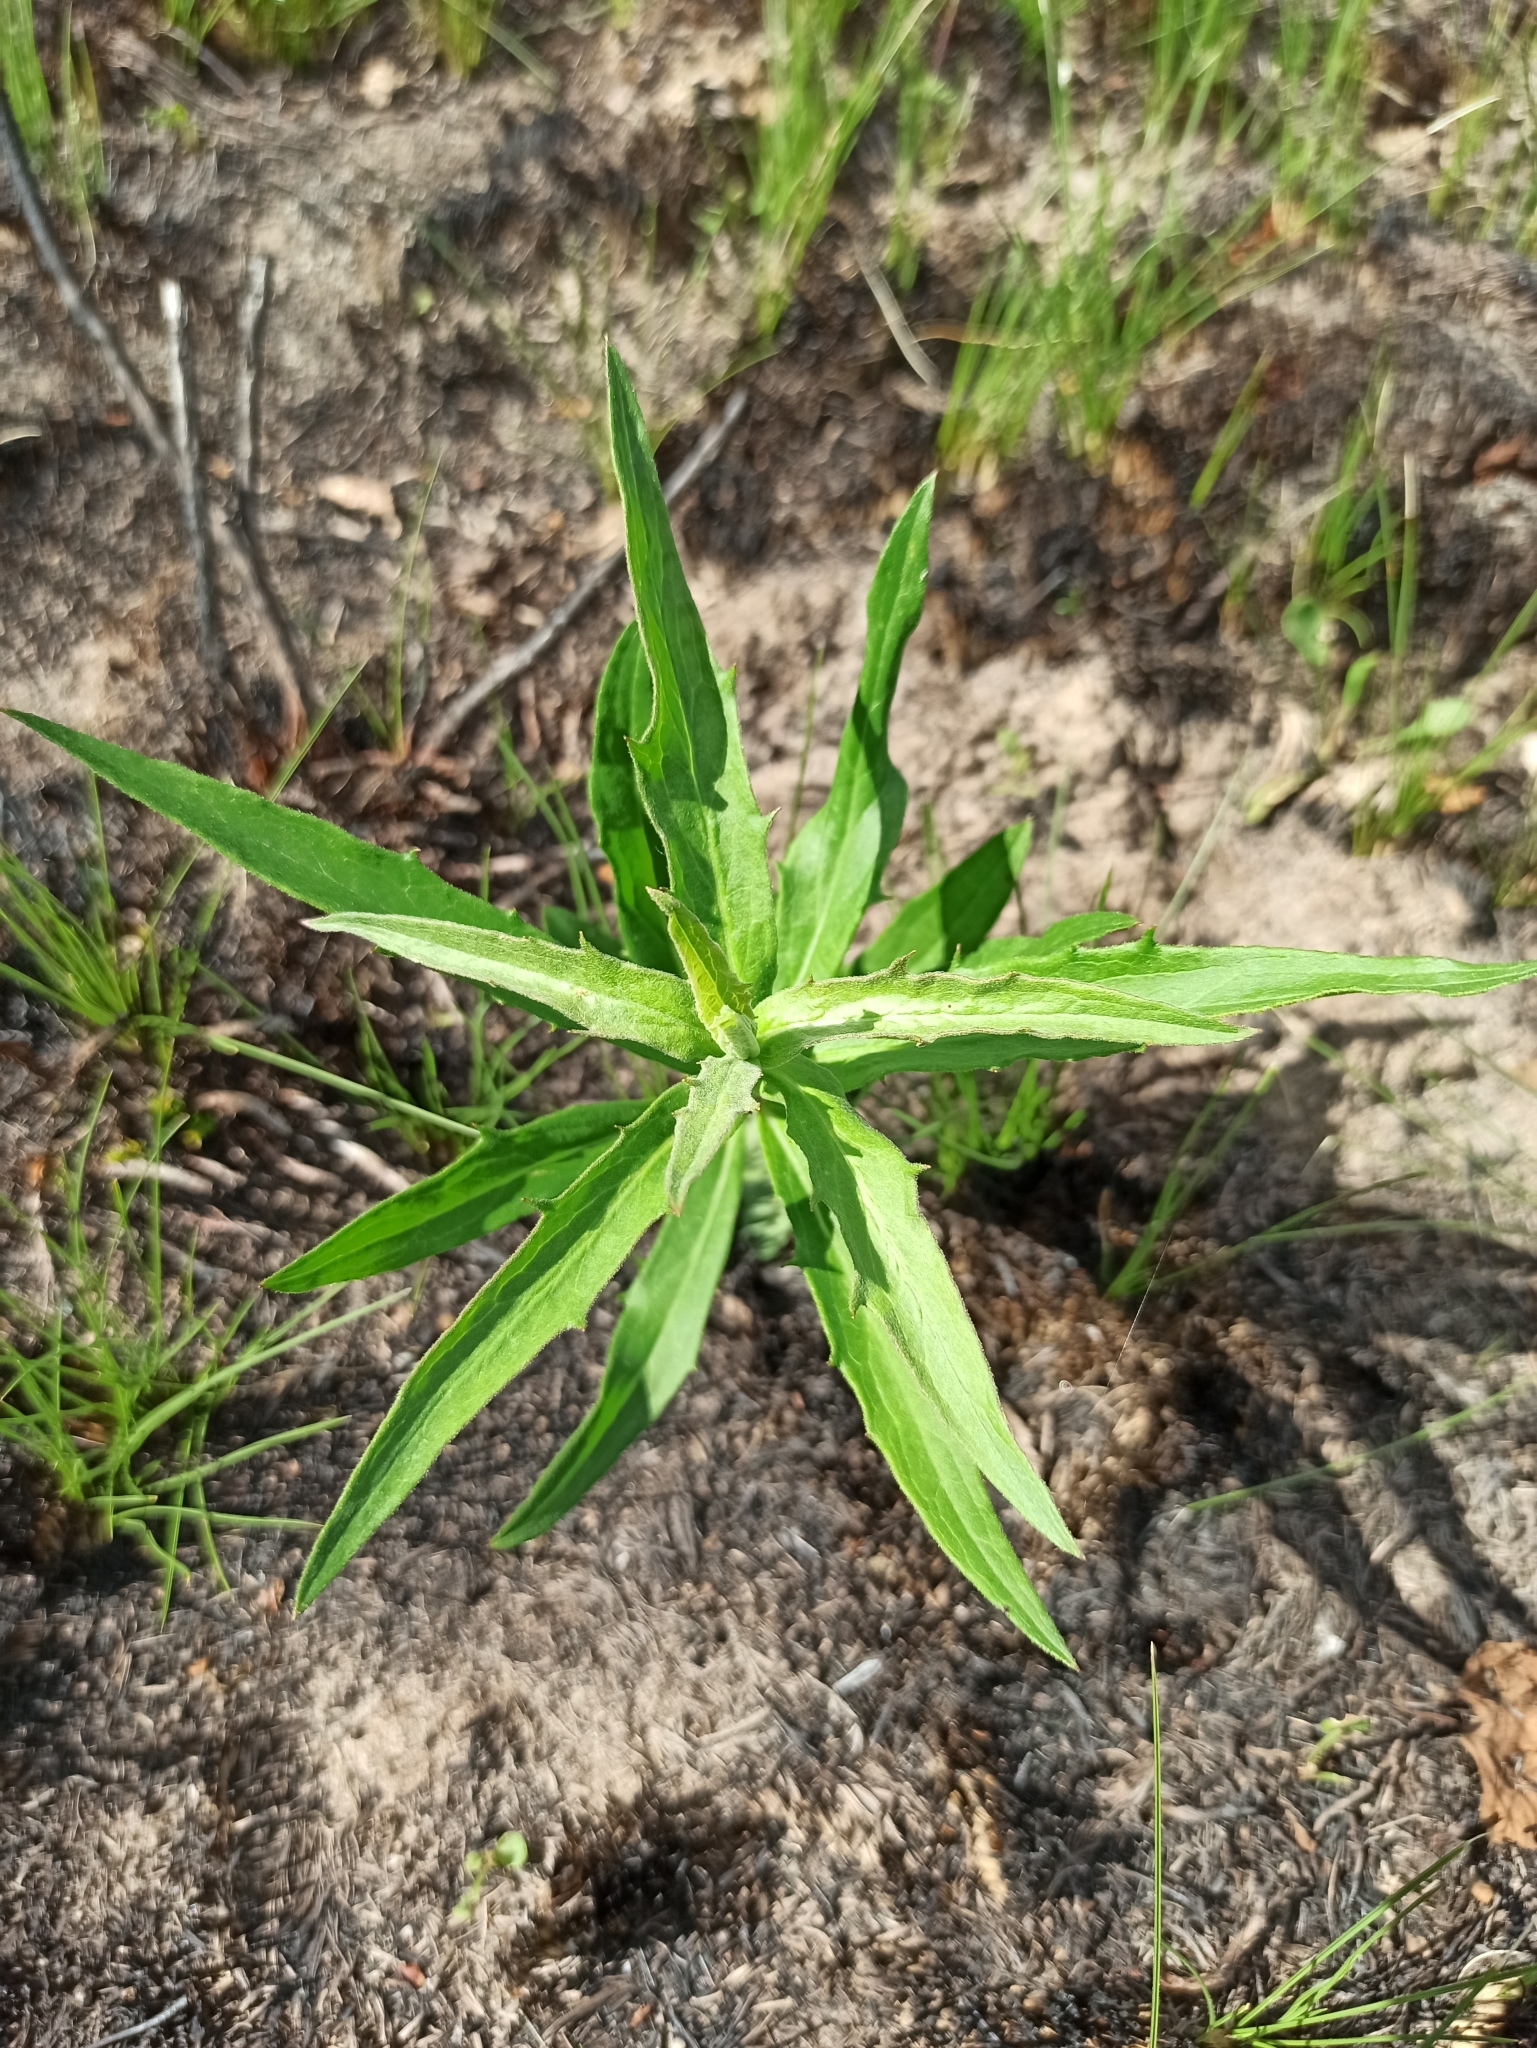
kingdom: Plantae
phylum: Tracheophyta
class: Magnoliopsida
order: Asterales
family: Asteraceae
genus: Hieracium
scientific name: Hieracium umbellatum
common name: Northern hawkweed
